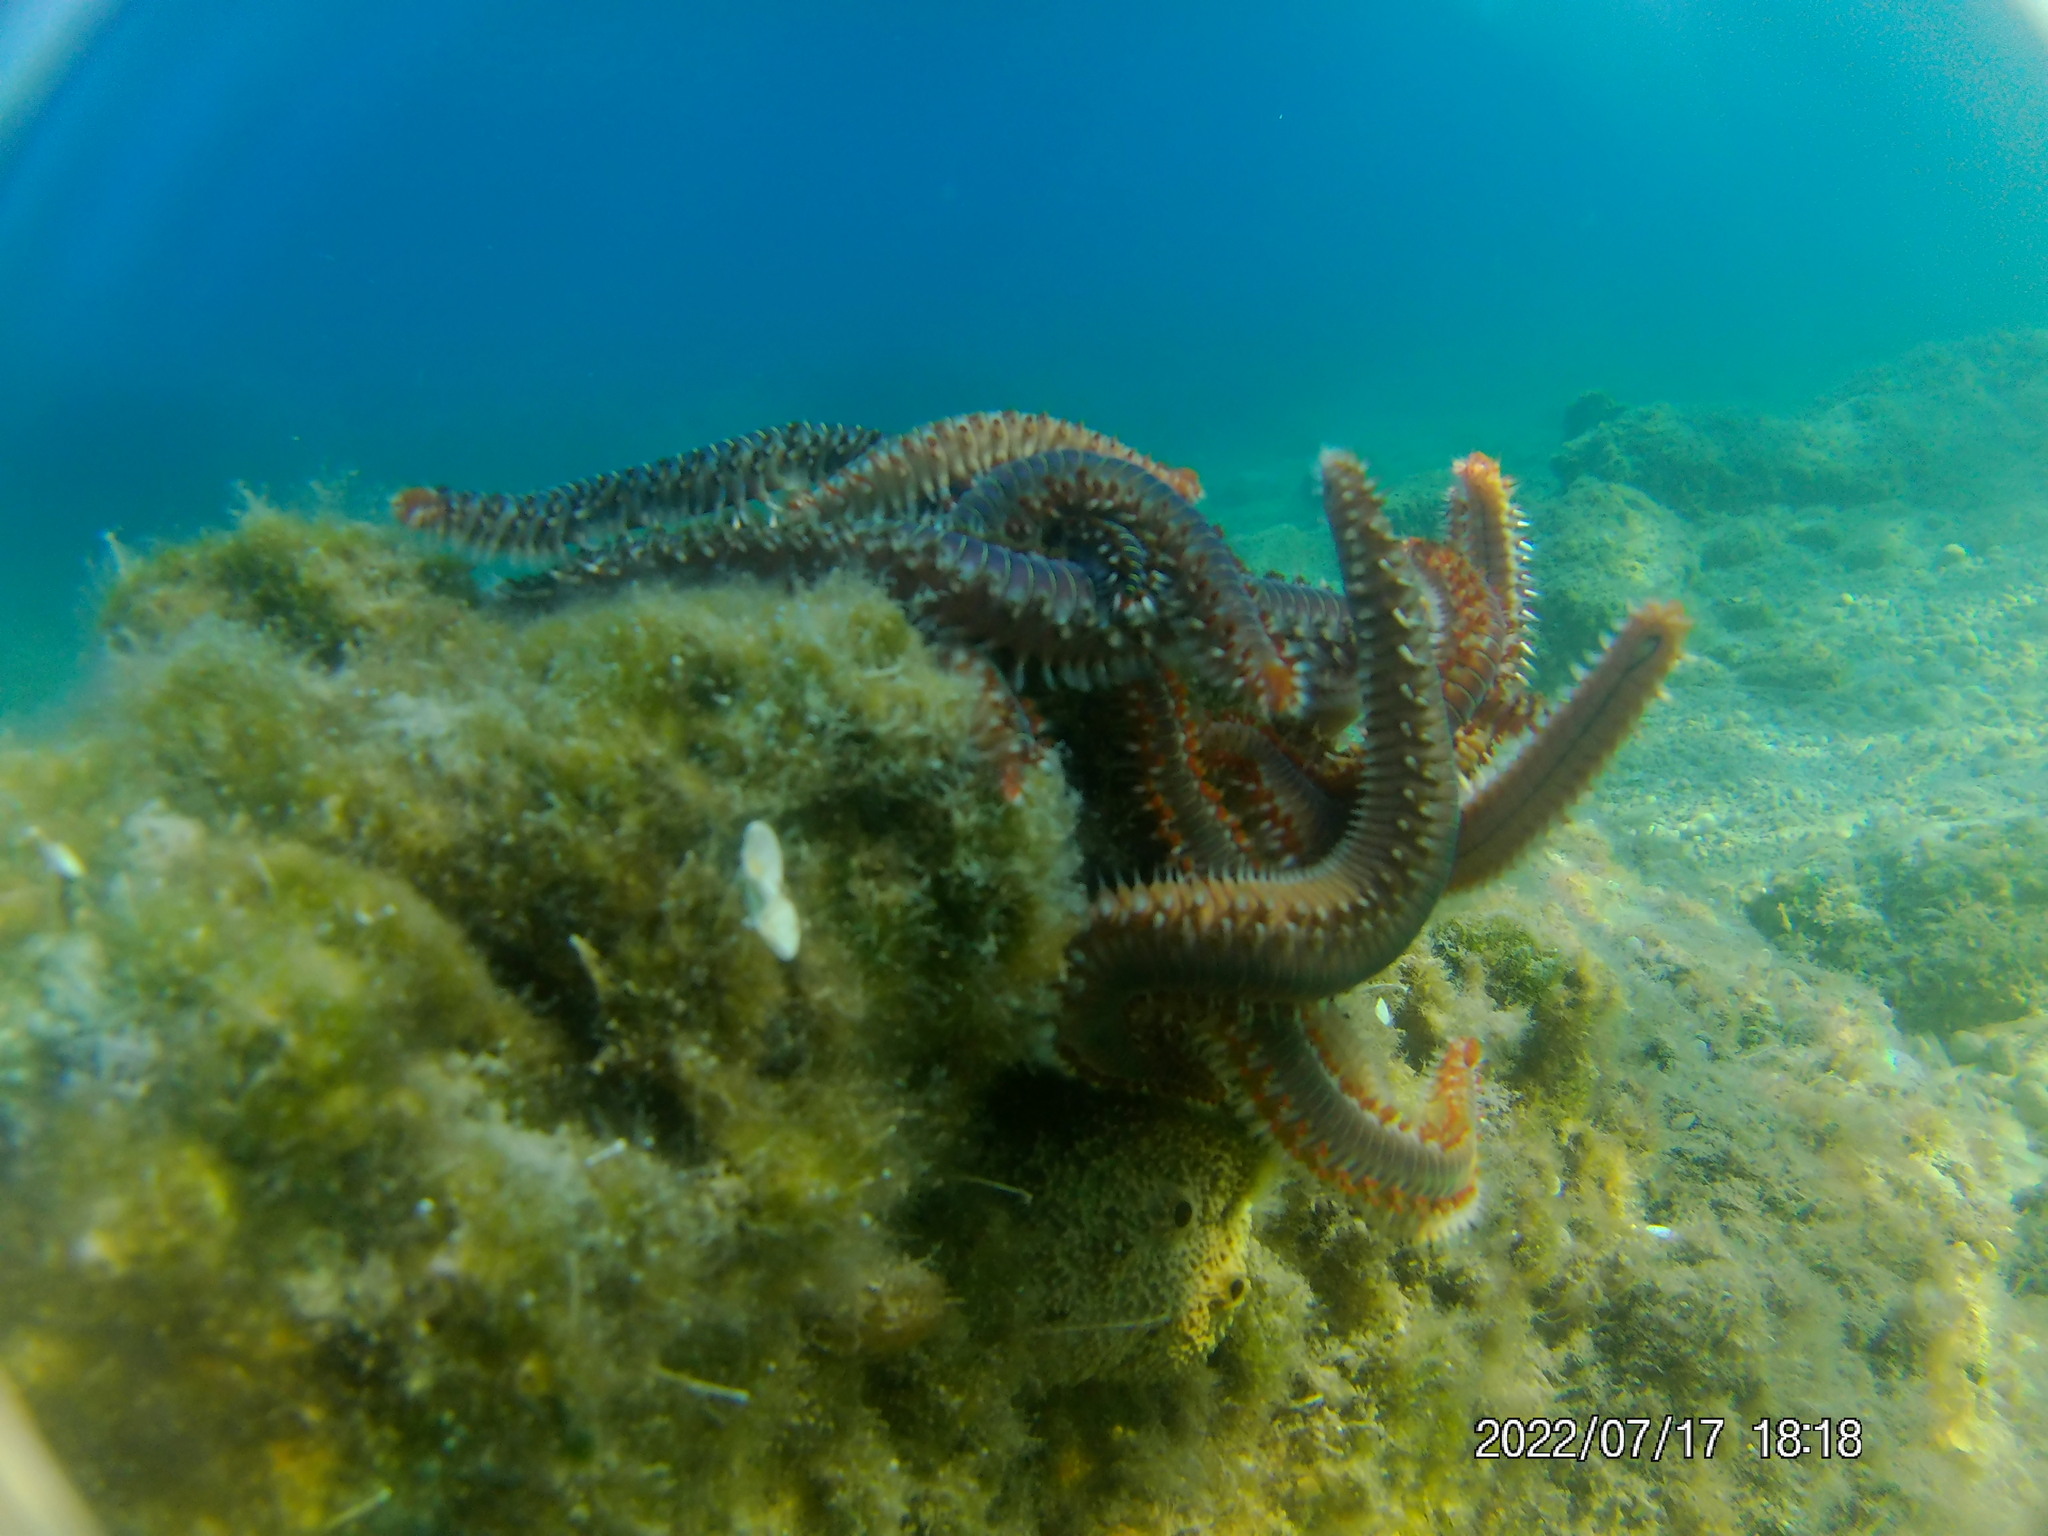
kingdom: Animalia
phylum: Annelida
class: Polychaeta
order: Amphinomida
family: Amphinomidae
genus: Hermodice
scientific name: Hermodice carunculata
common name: Bearded fireworm
